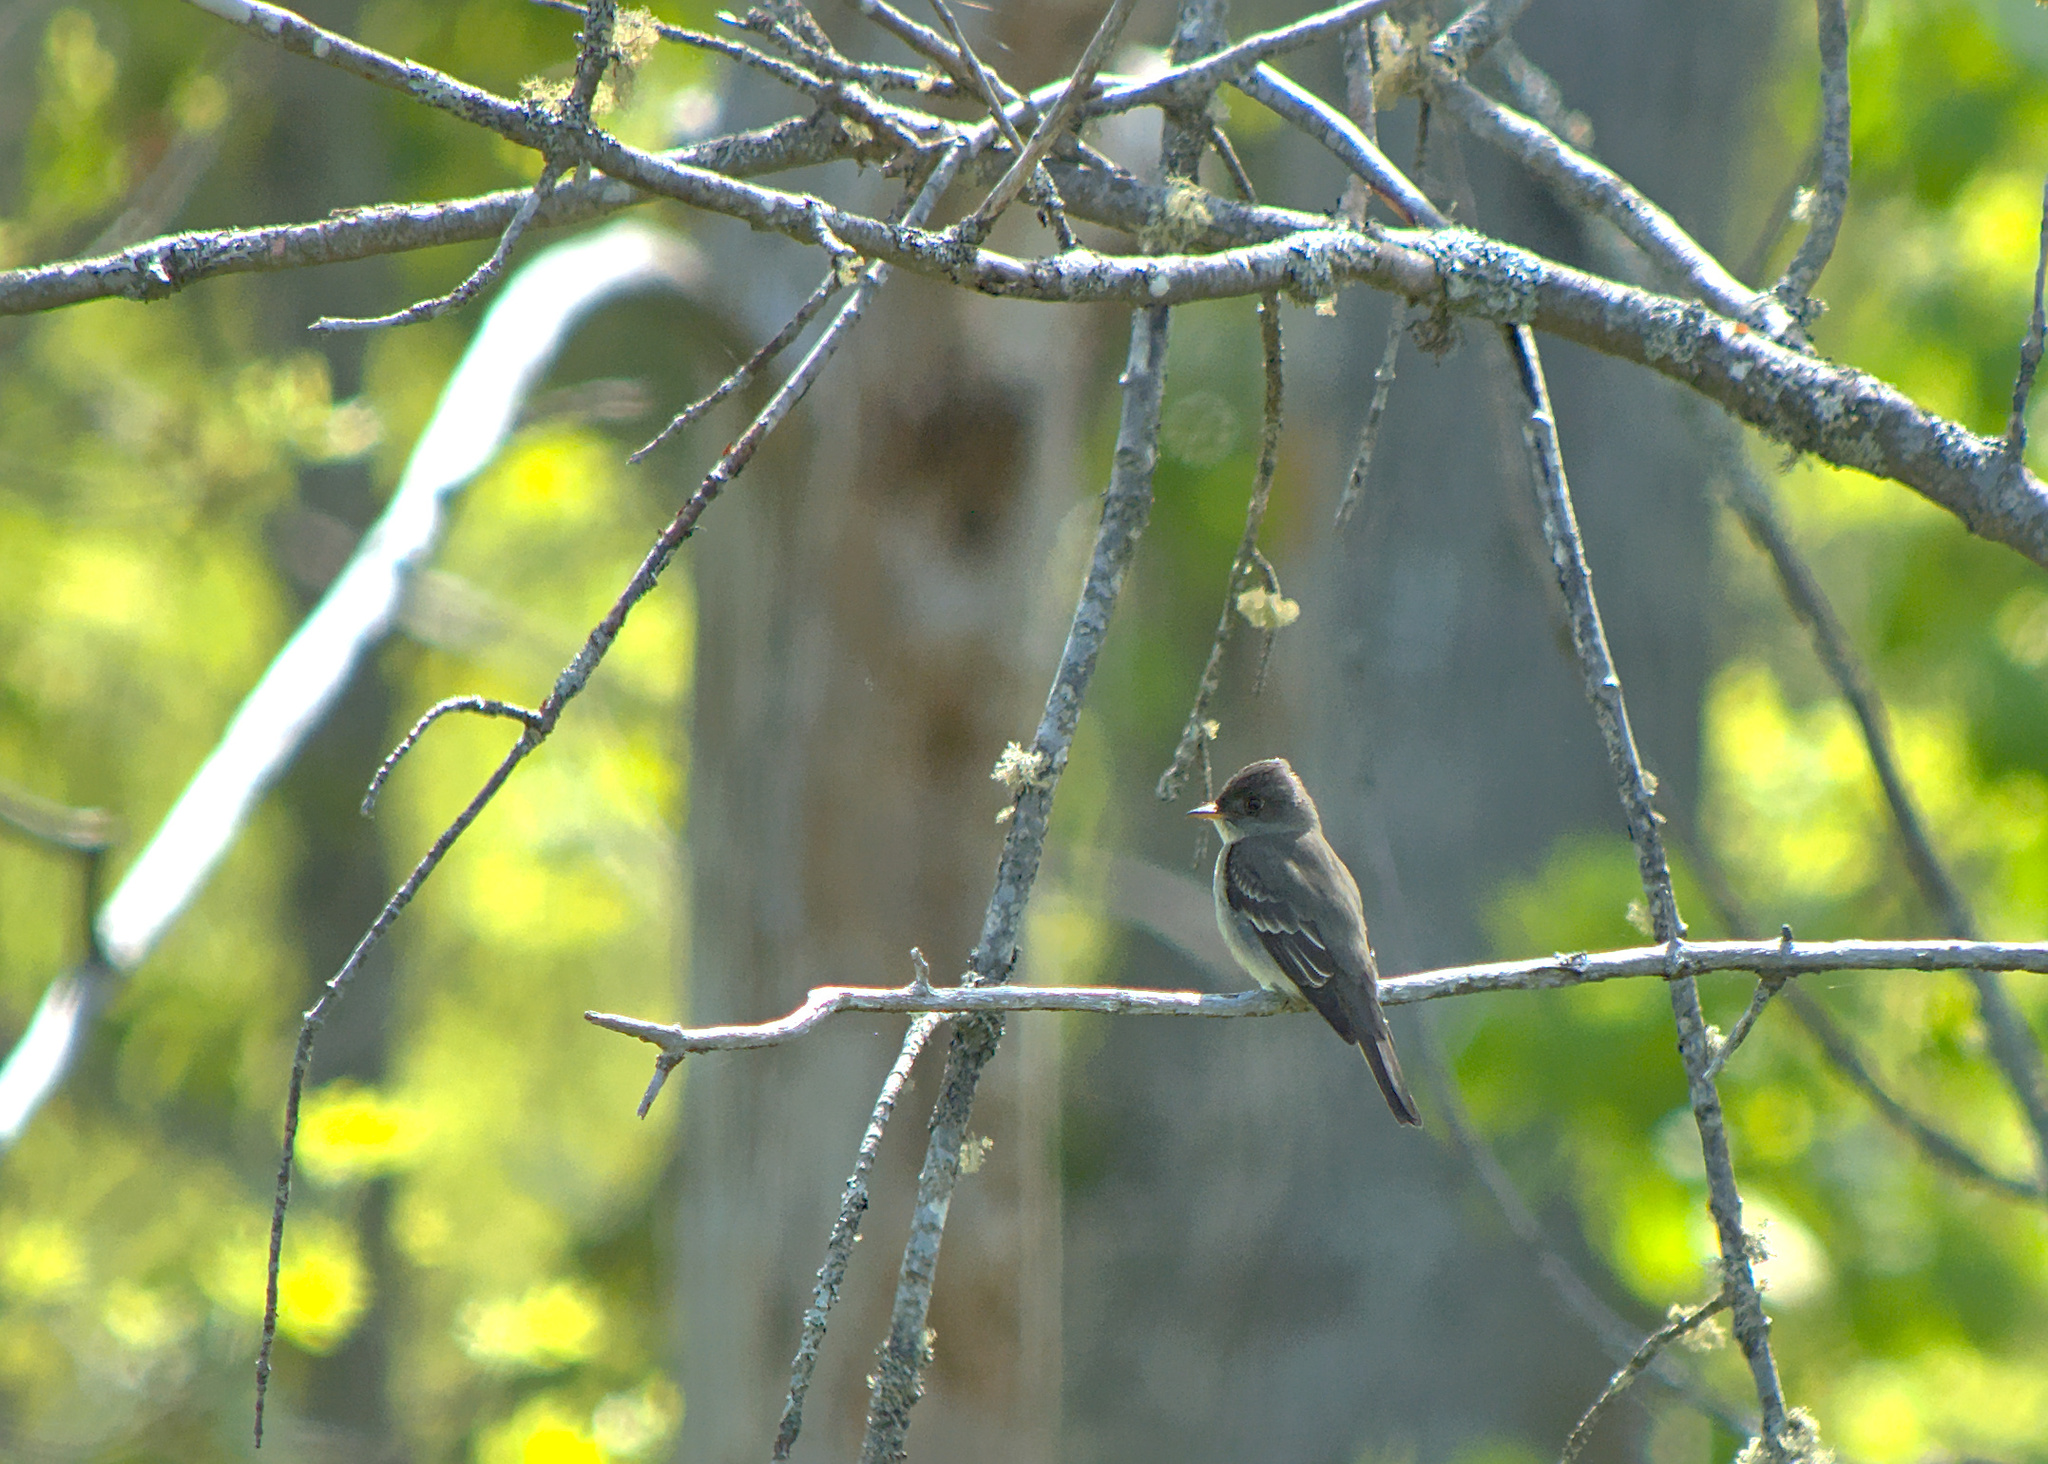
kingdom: Animalia
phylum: Chordata
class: Aves
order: Passeriformes
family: Tyrannidae
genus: Empidonax
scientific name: Empidonax alnorum
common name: Alder flycatcher
